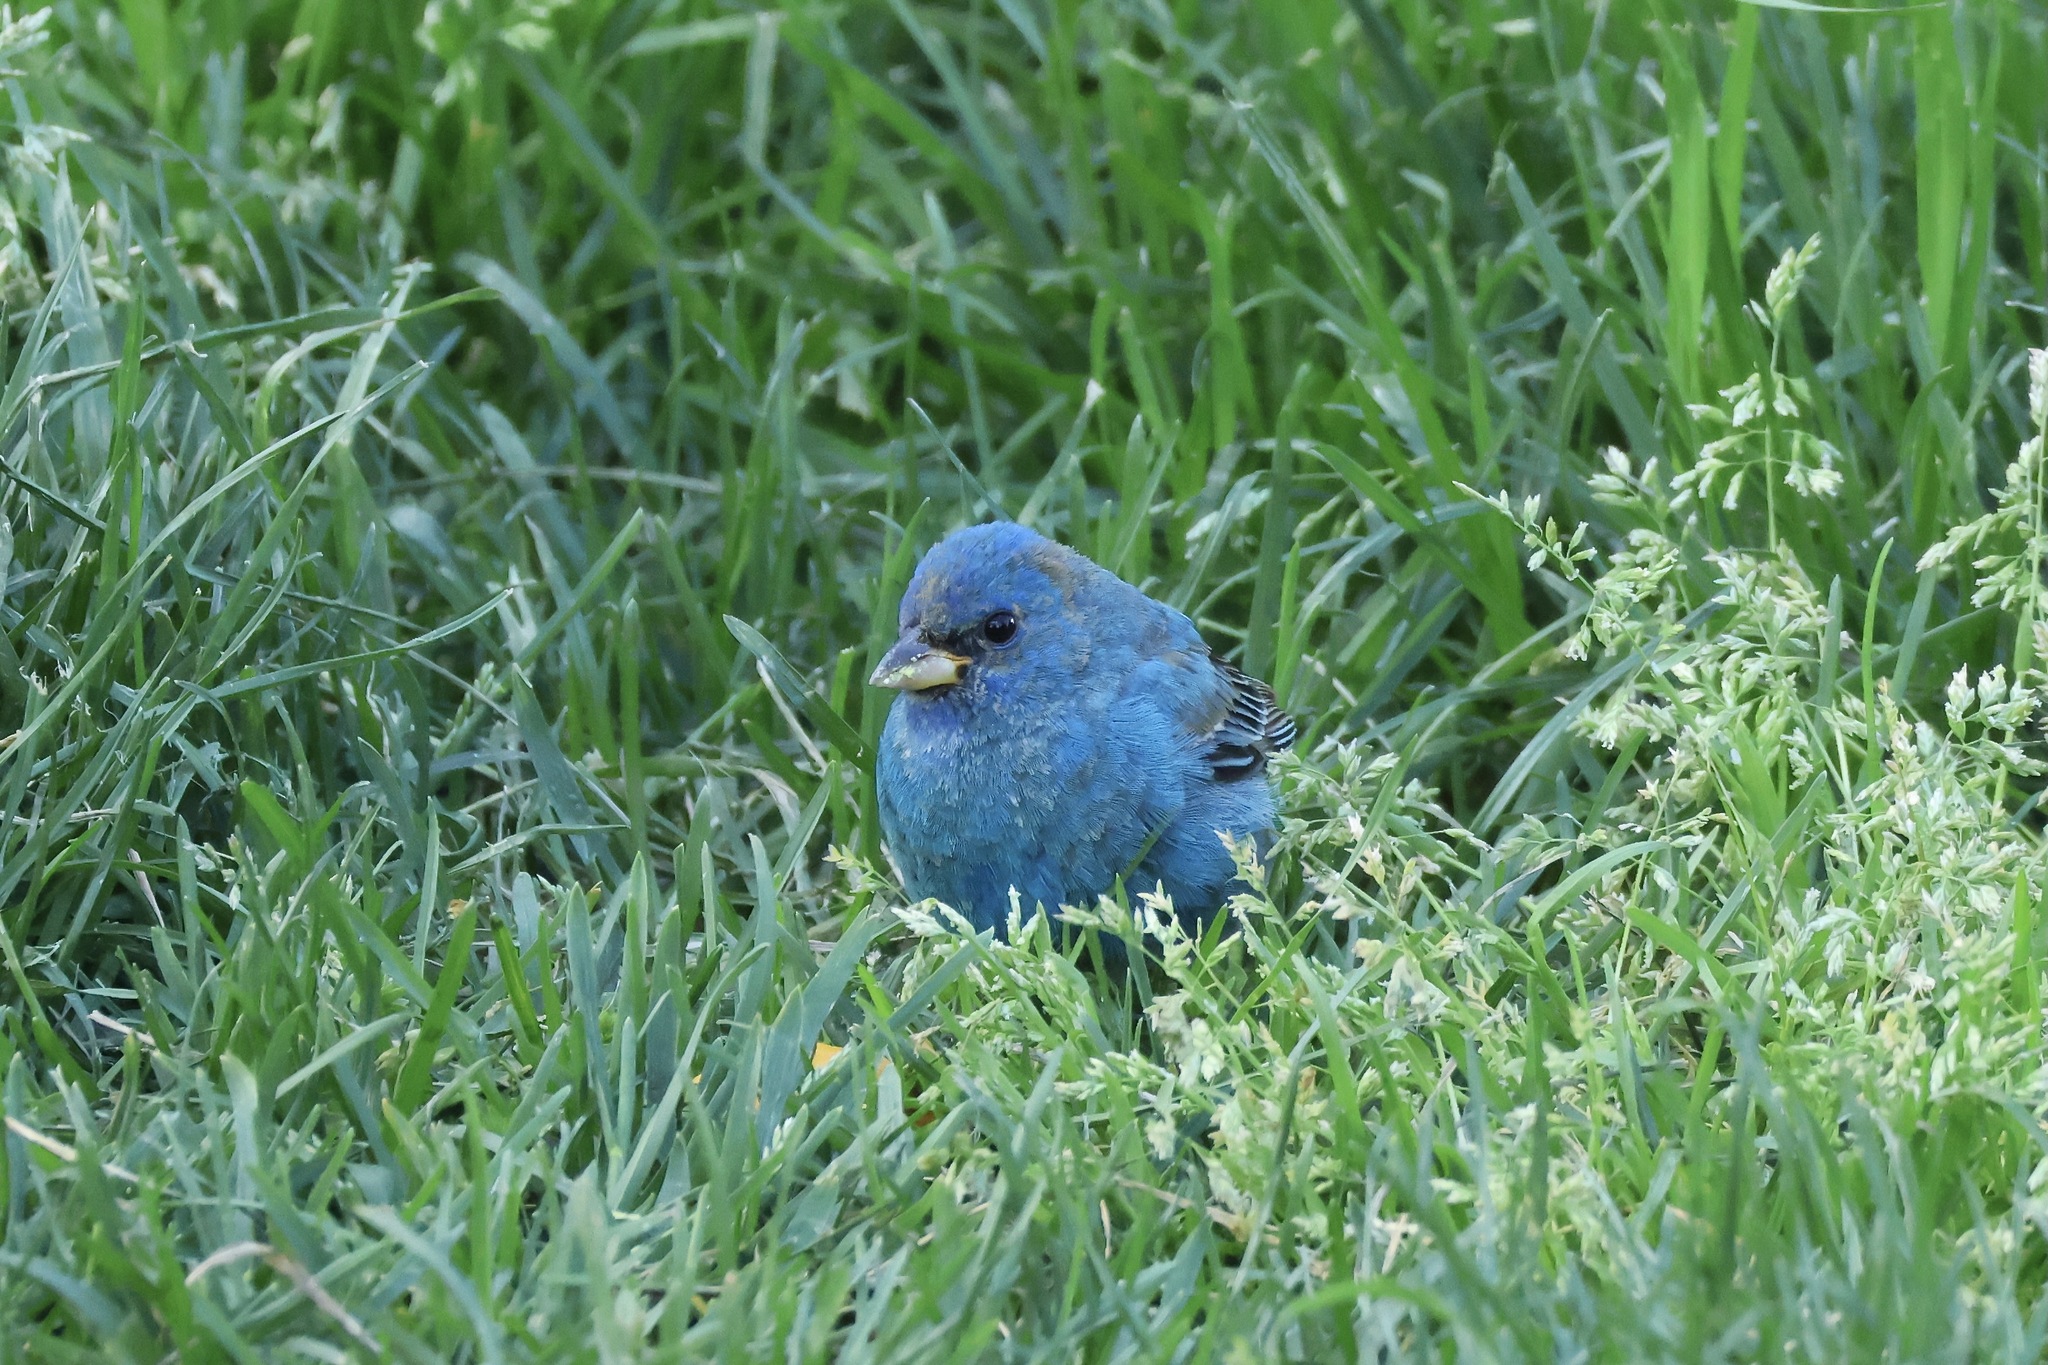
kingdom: Animalia
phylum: Chordata
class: Aves
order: Passeriformes
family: Cardinalidae
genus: Passerina
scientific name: Passerina cyanea
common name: Indigo bunting
